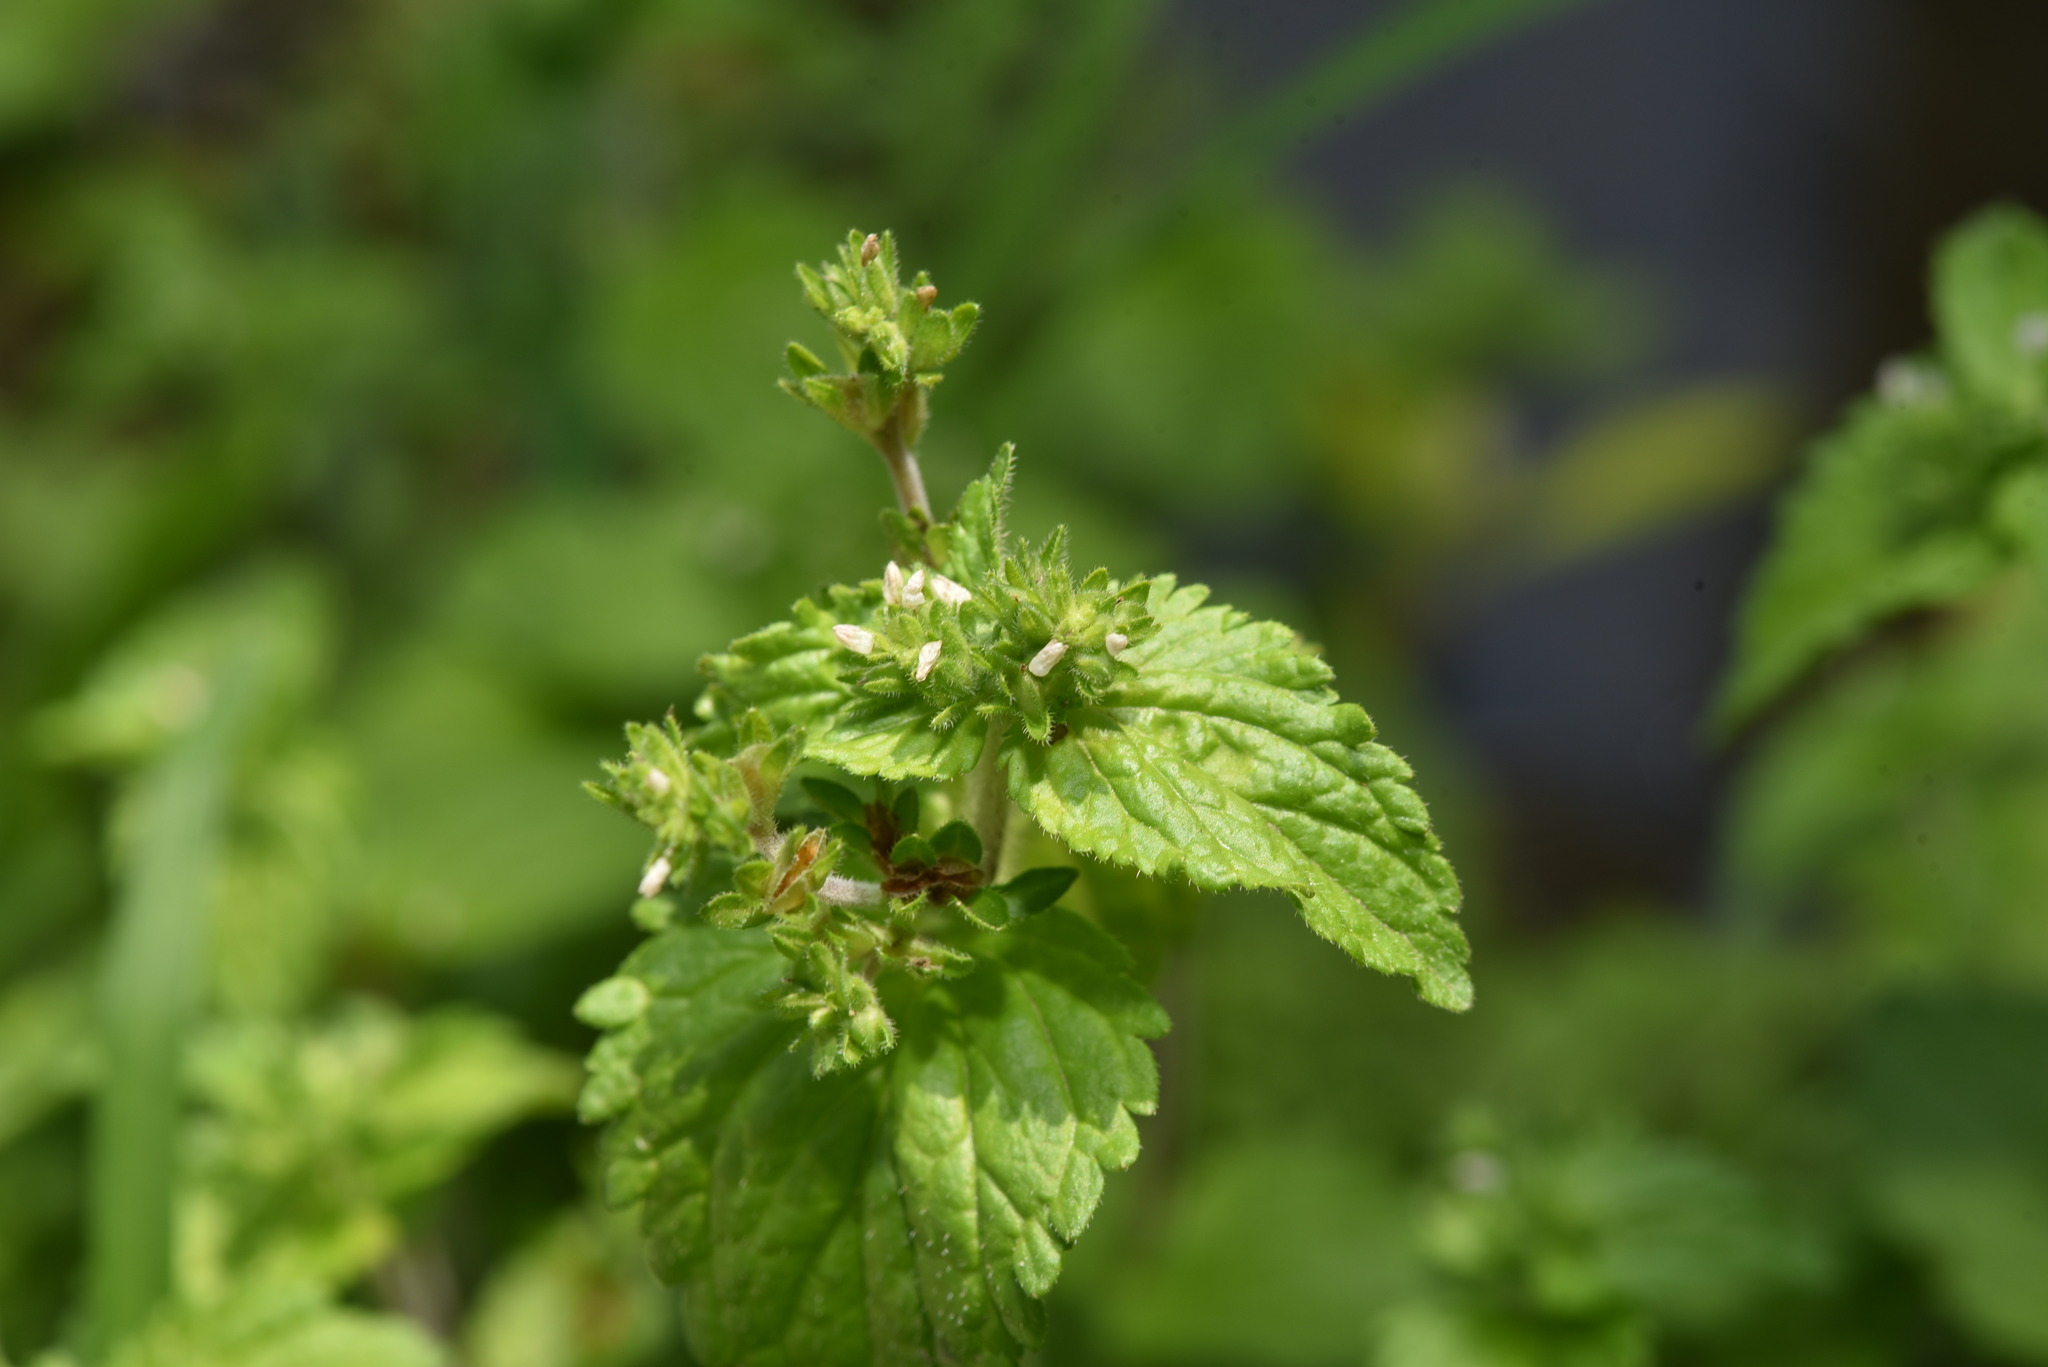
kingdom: Plantae
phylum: Tracheophyta
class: Magnoliopsida
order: Lamiales
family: Plantaginaceae
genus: Veronica
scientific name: Veronica javanica
